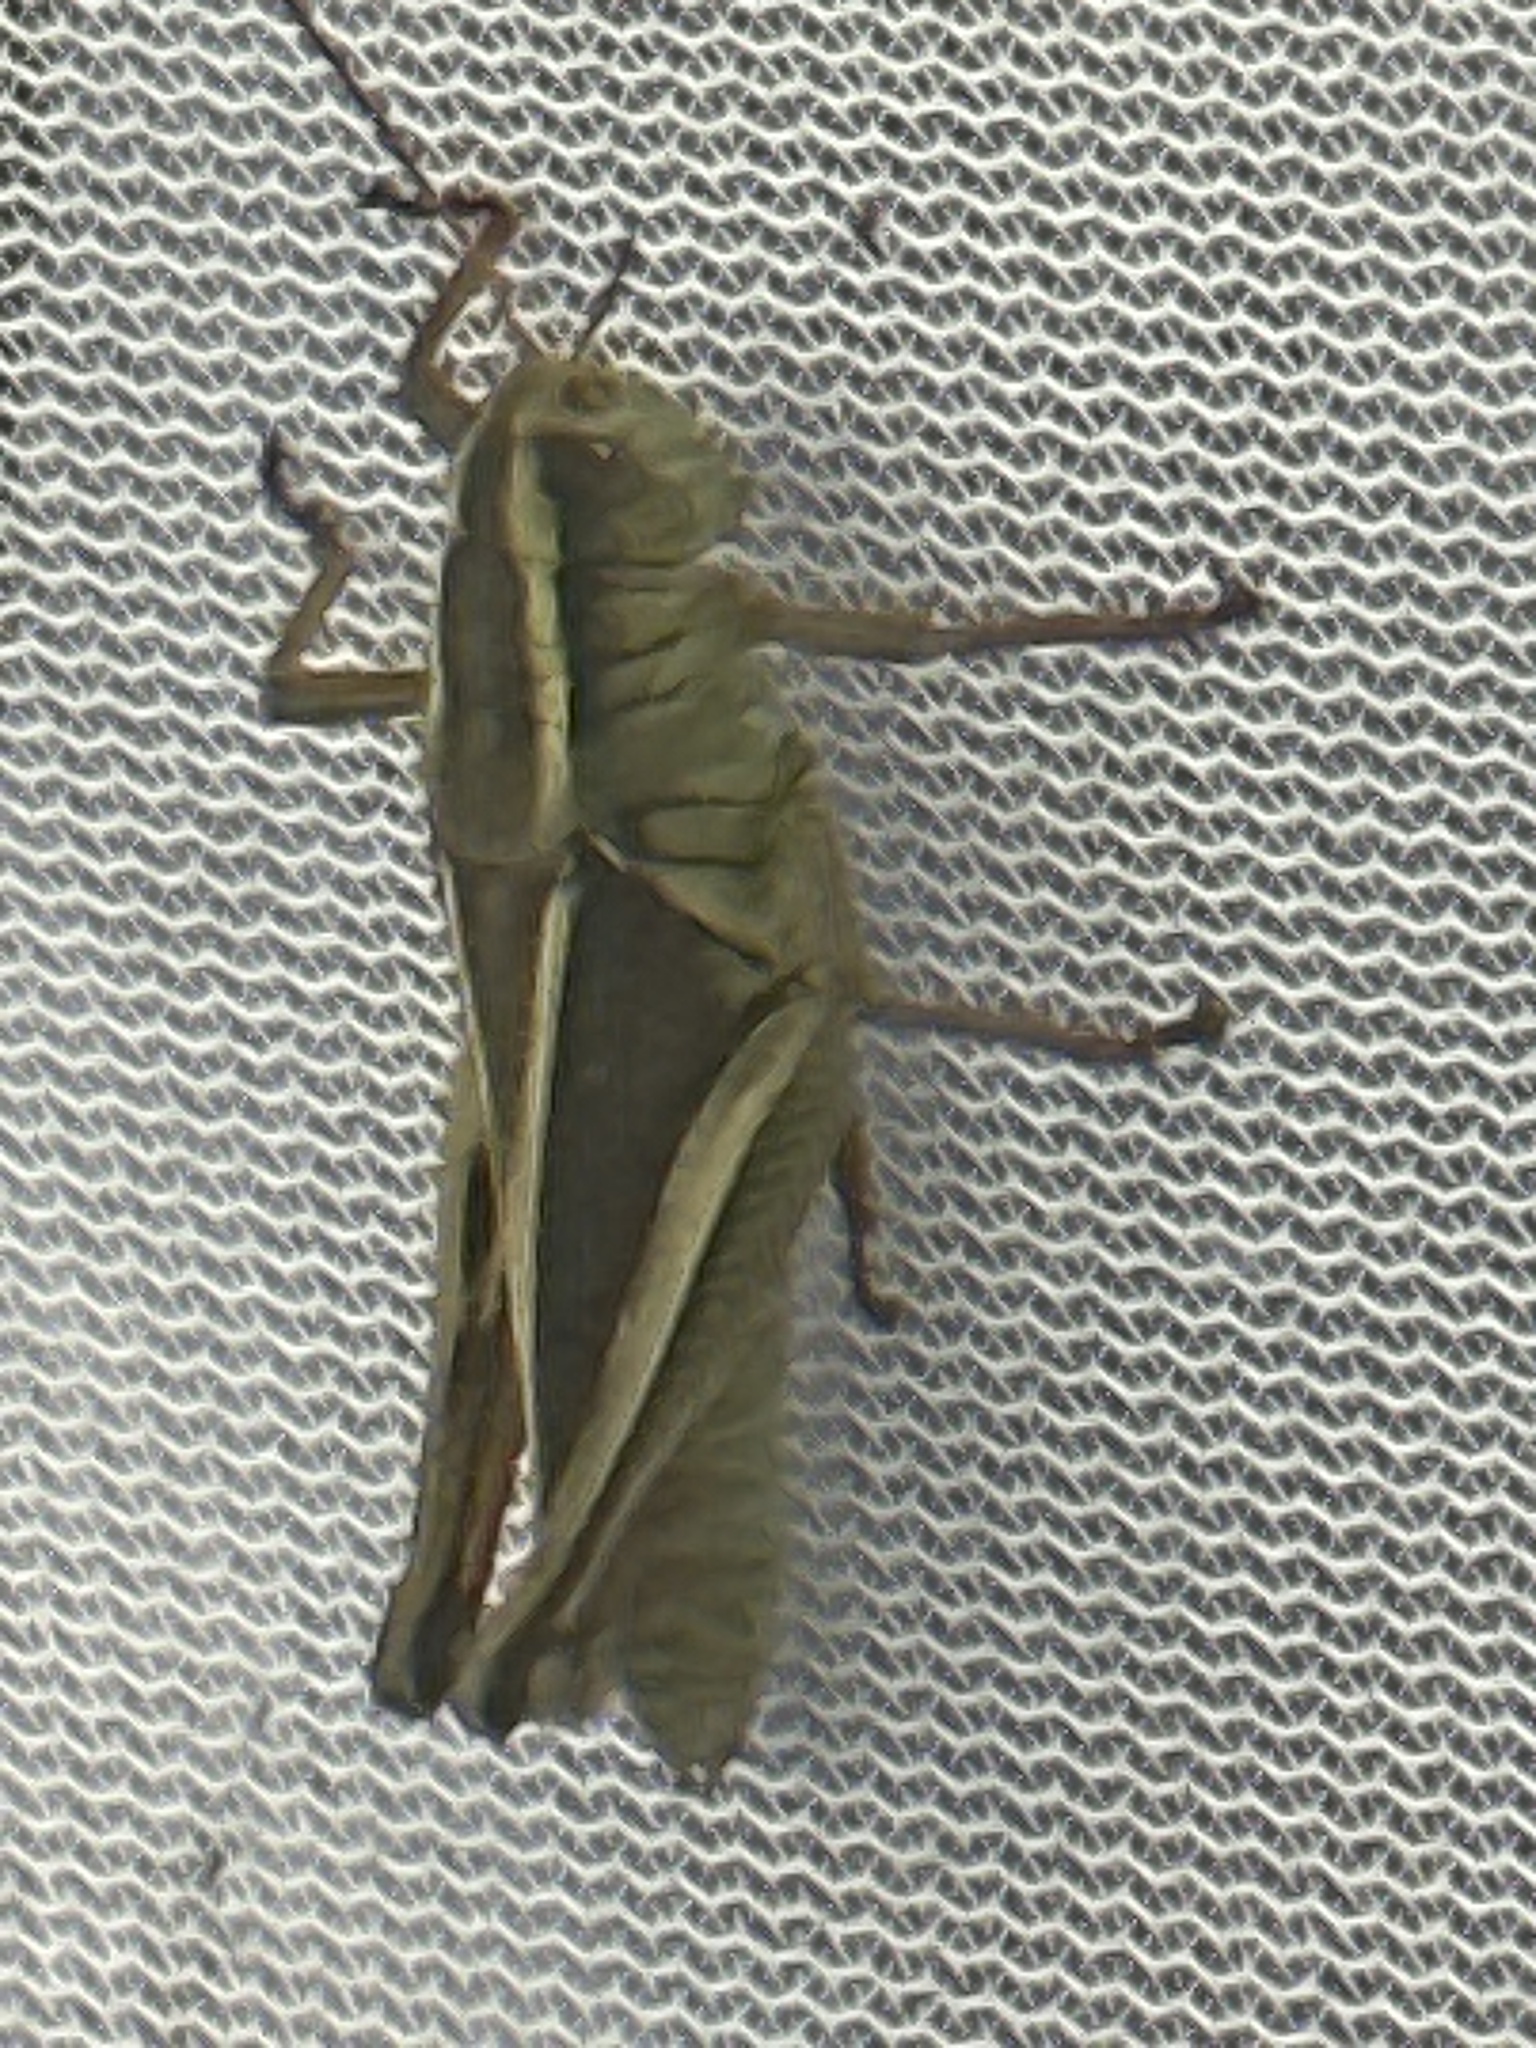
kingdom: Animalia
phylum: Arthropoda
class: Insecta
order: Orthoptera
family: Acrididae
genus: Melanoplus
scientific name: Melanoplus bivittatus
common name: Two-striped grasshopper
